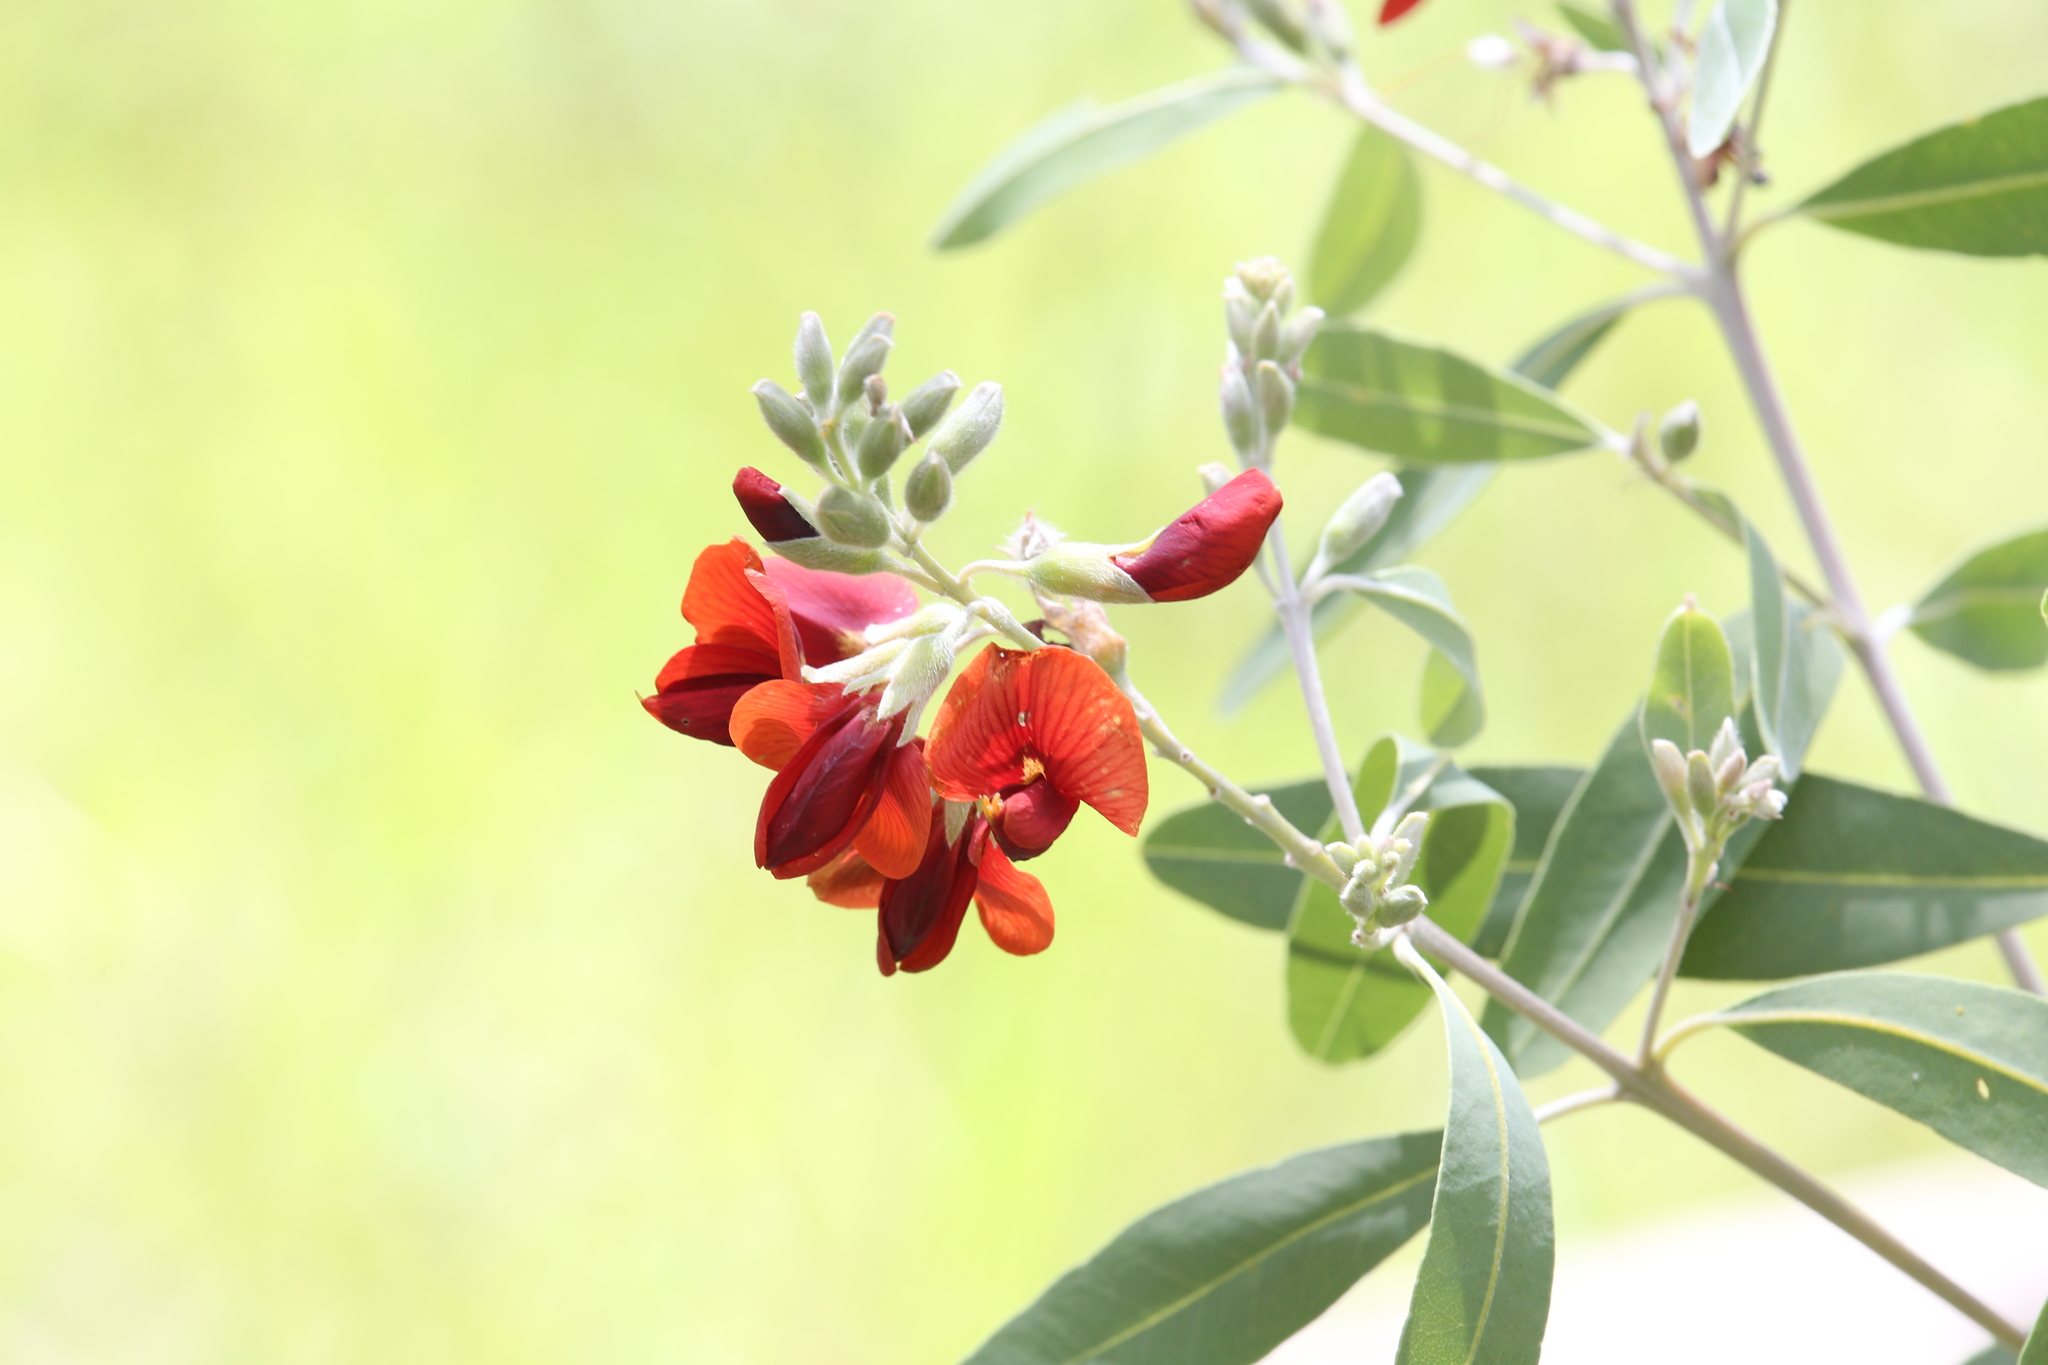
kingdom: Plantae
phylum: Tracheophyta
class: Magnoliopsida
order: Fabales
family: Fabaceae
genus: Gastrolobium
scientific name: Gastrolobium grandiflorum
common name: Australian poisonbush
